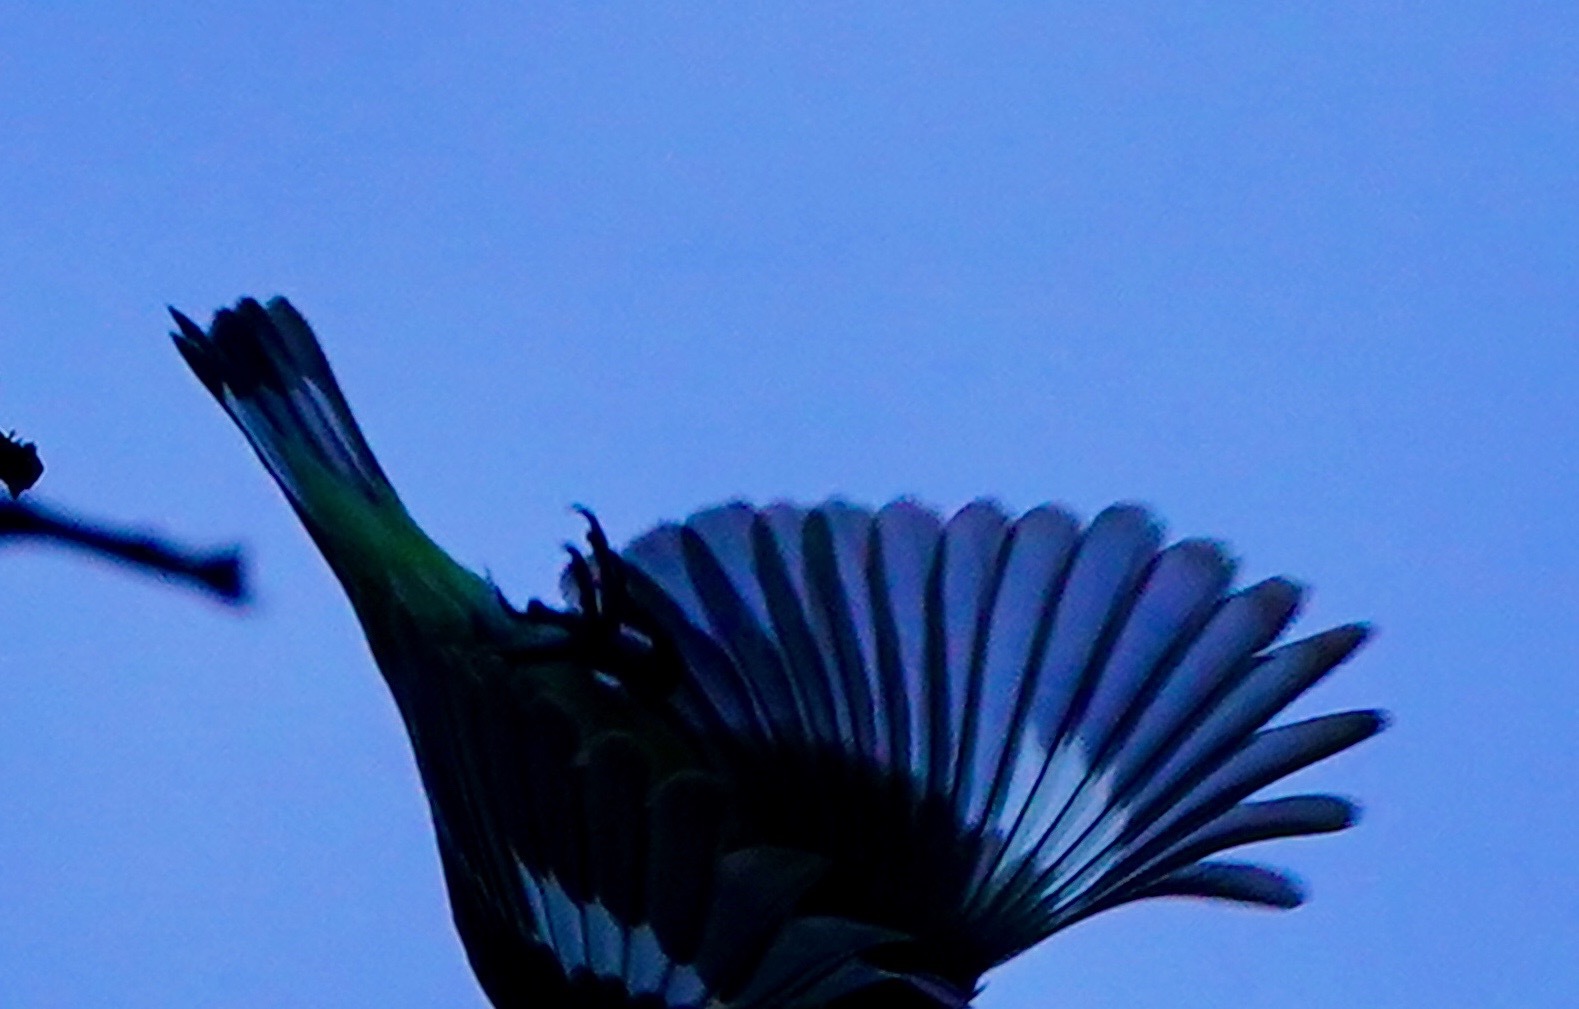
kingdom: Animalia
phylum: Chordata
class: Aves
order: Passeriformes
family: Fringillidae
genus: Spinus
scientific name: Spinus psaltria
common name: Lesser goldfinch
